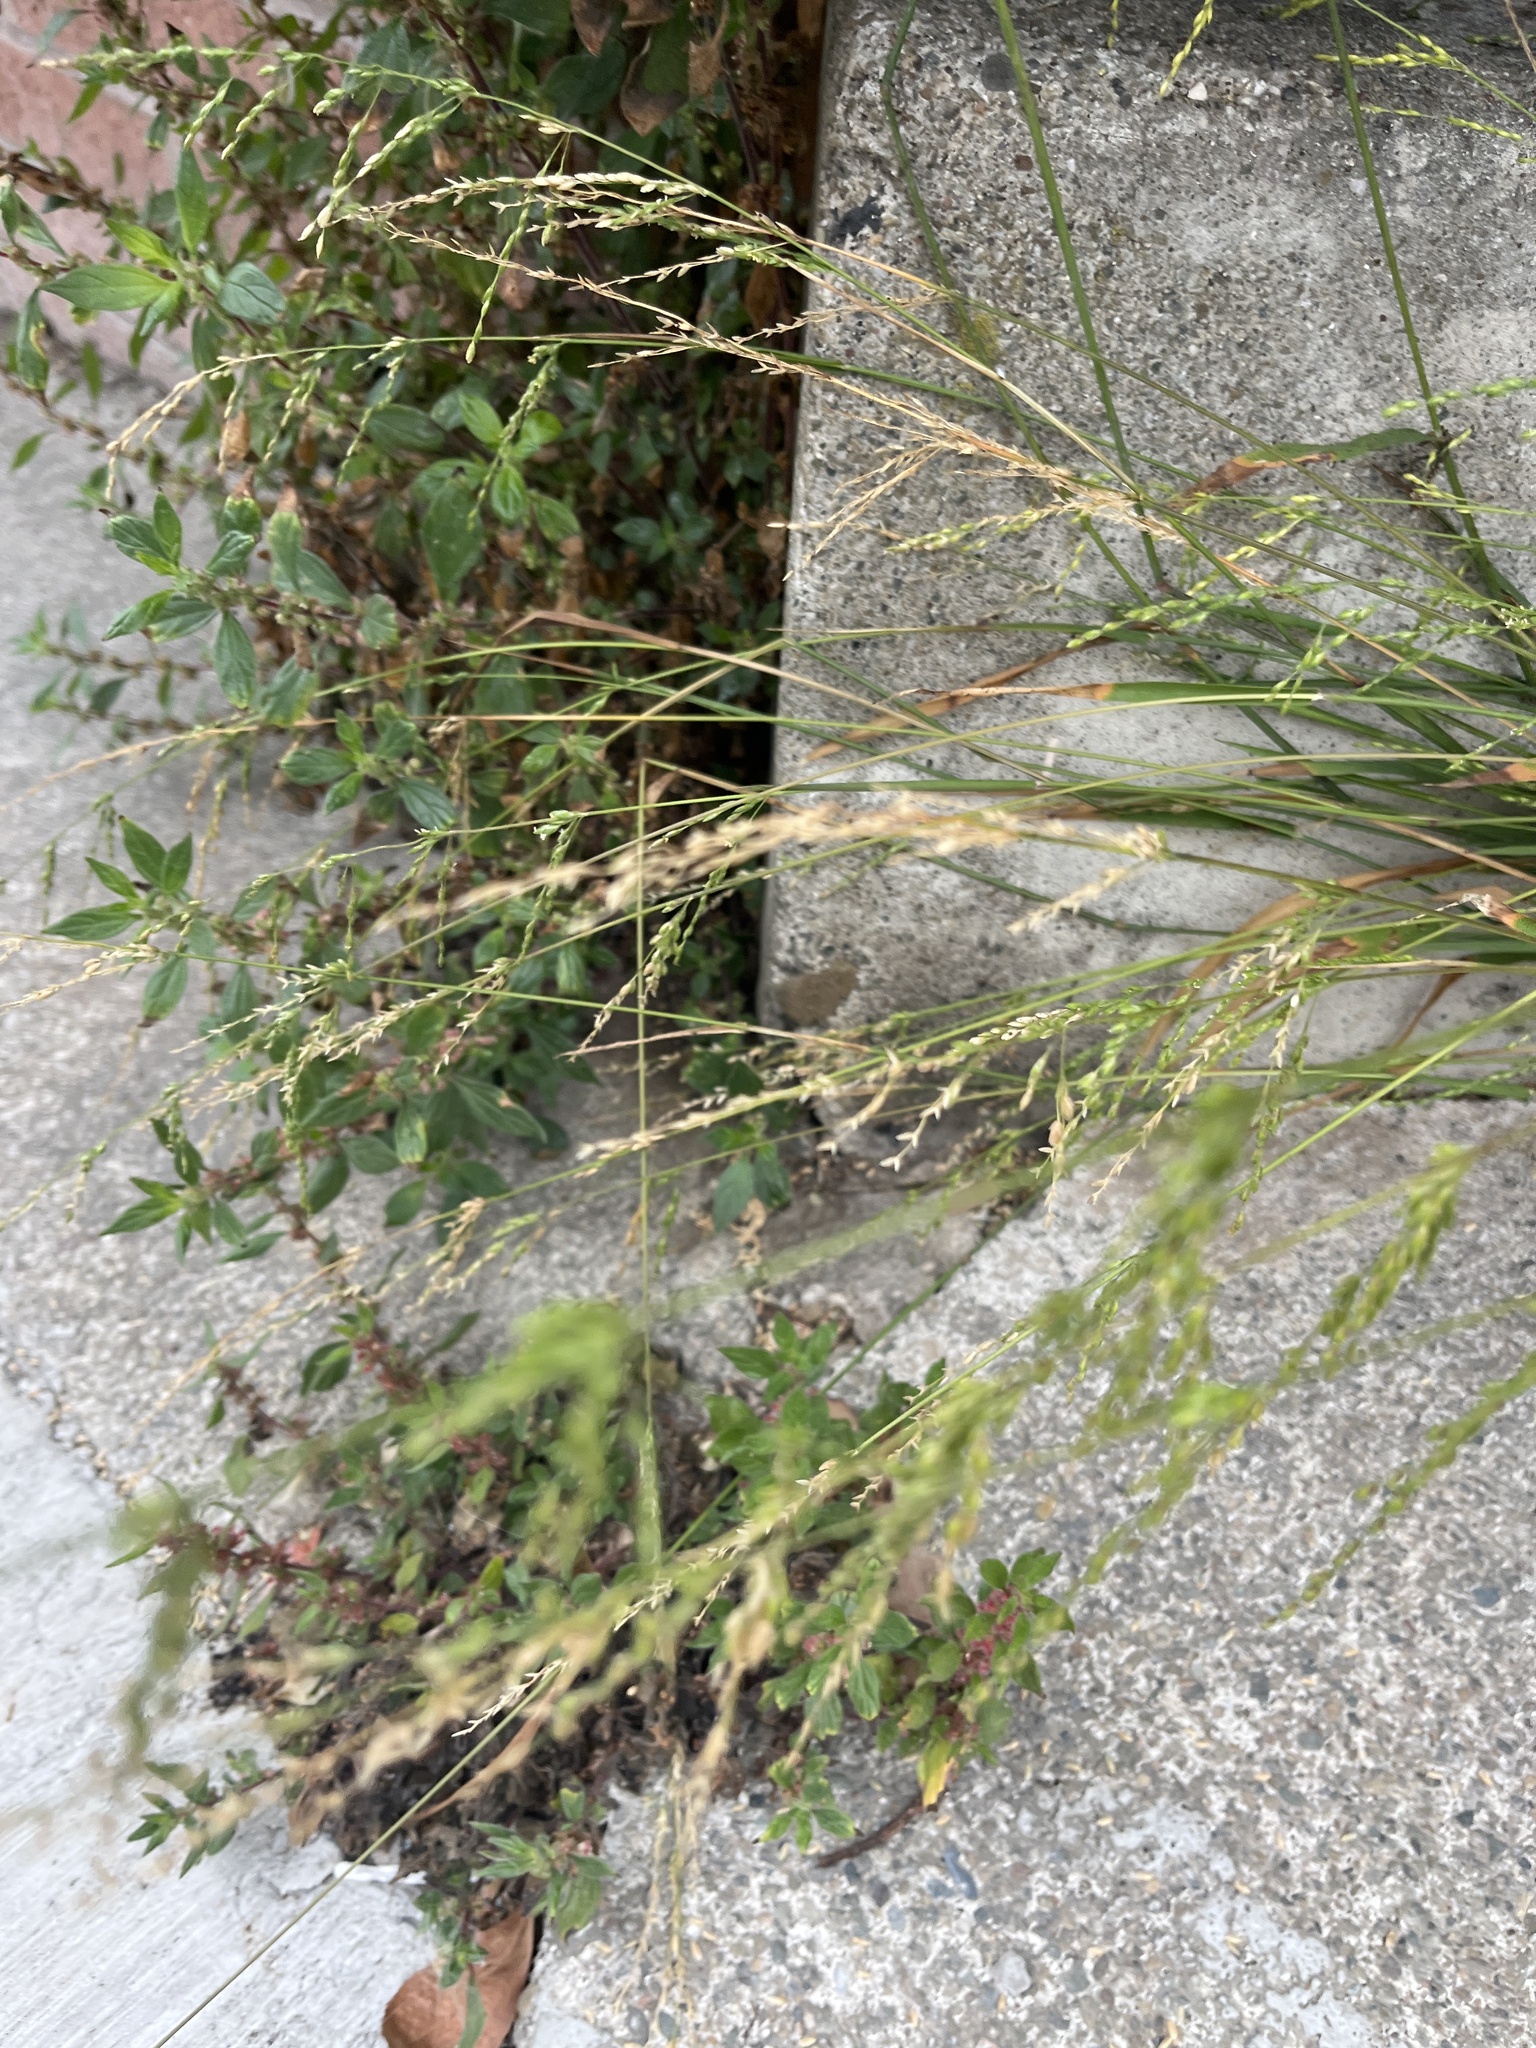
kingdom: Plantae
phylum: Tracheophyta
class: Liliopsida
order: Poales
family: Poaceae
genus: Ehrharta
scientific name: Ehrharta erecta
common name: Panic veldtgrass
